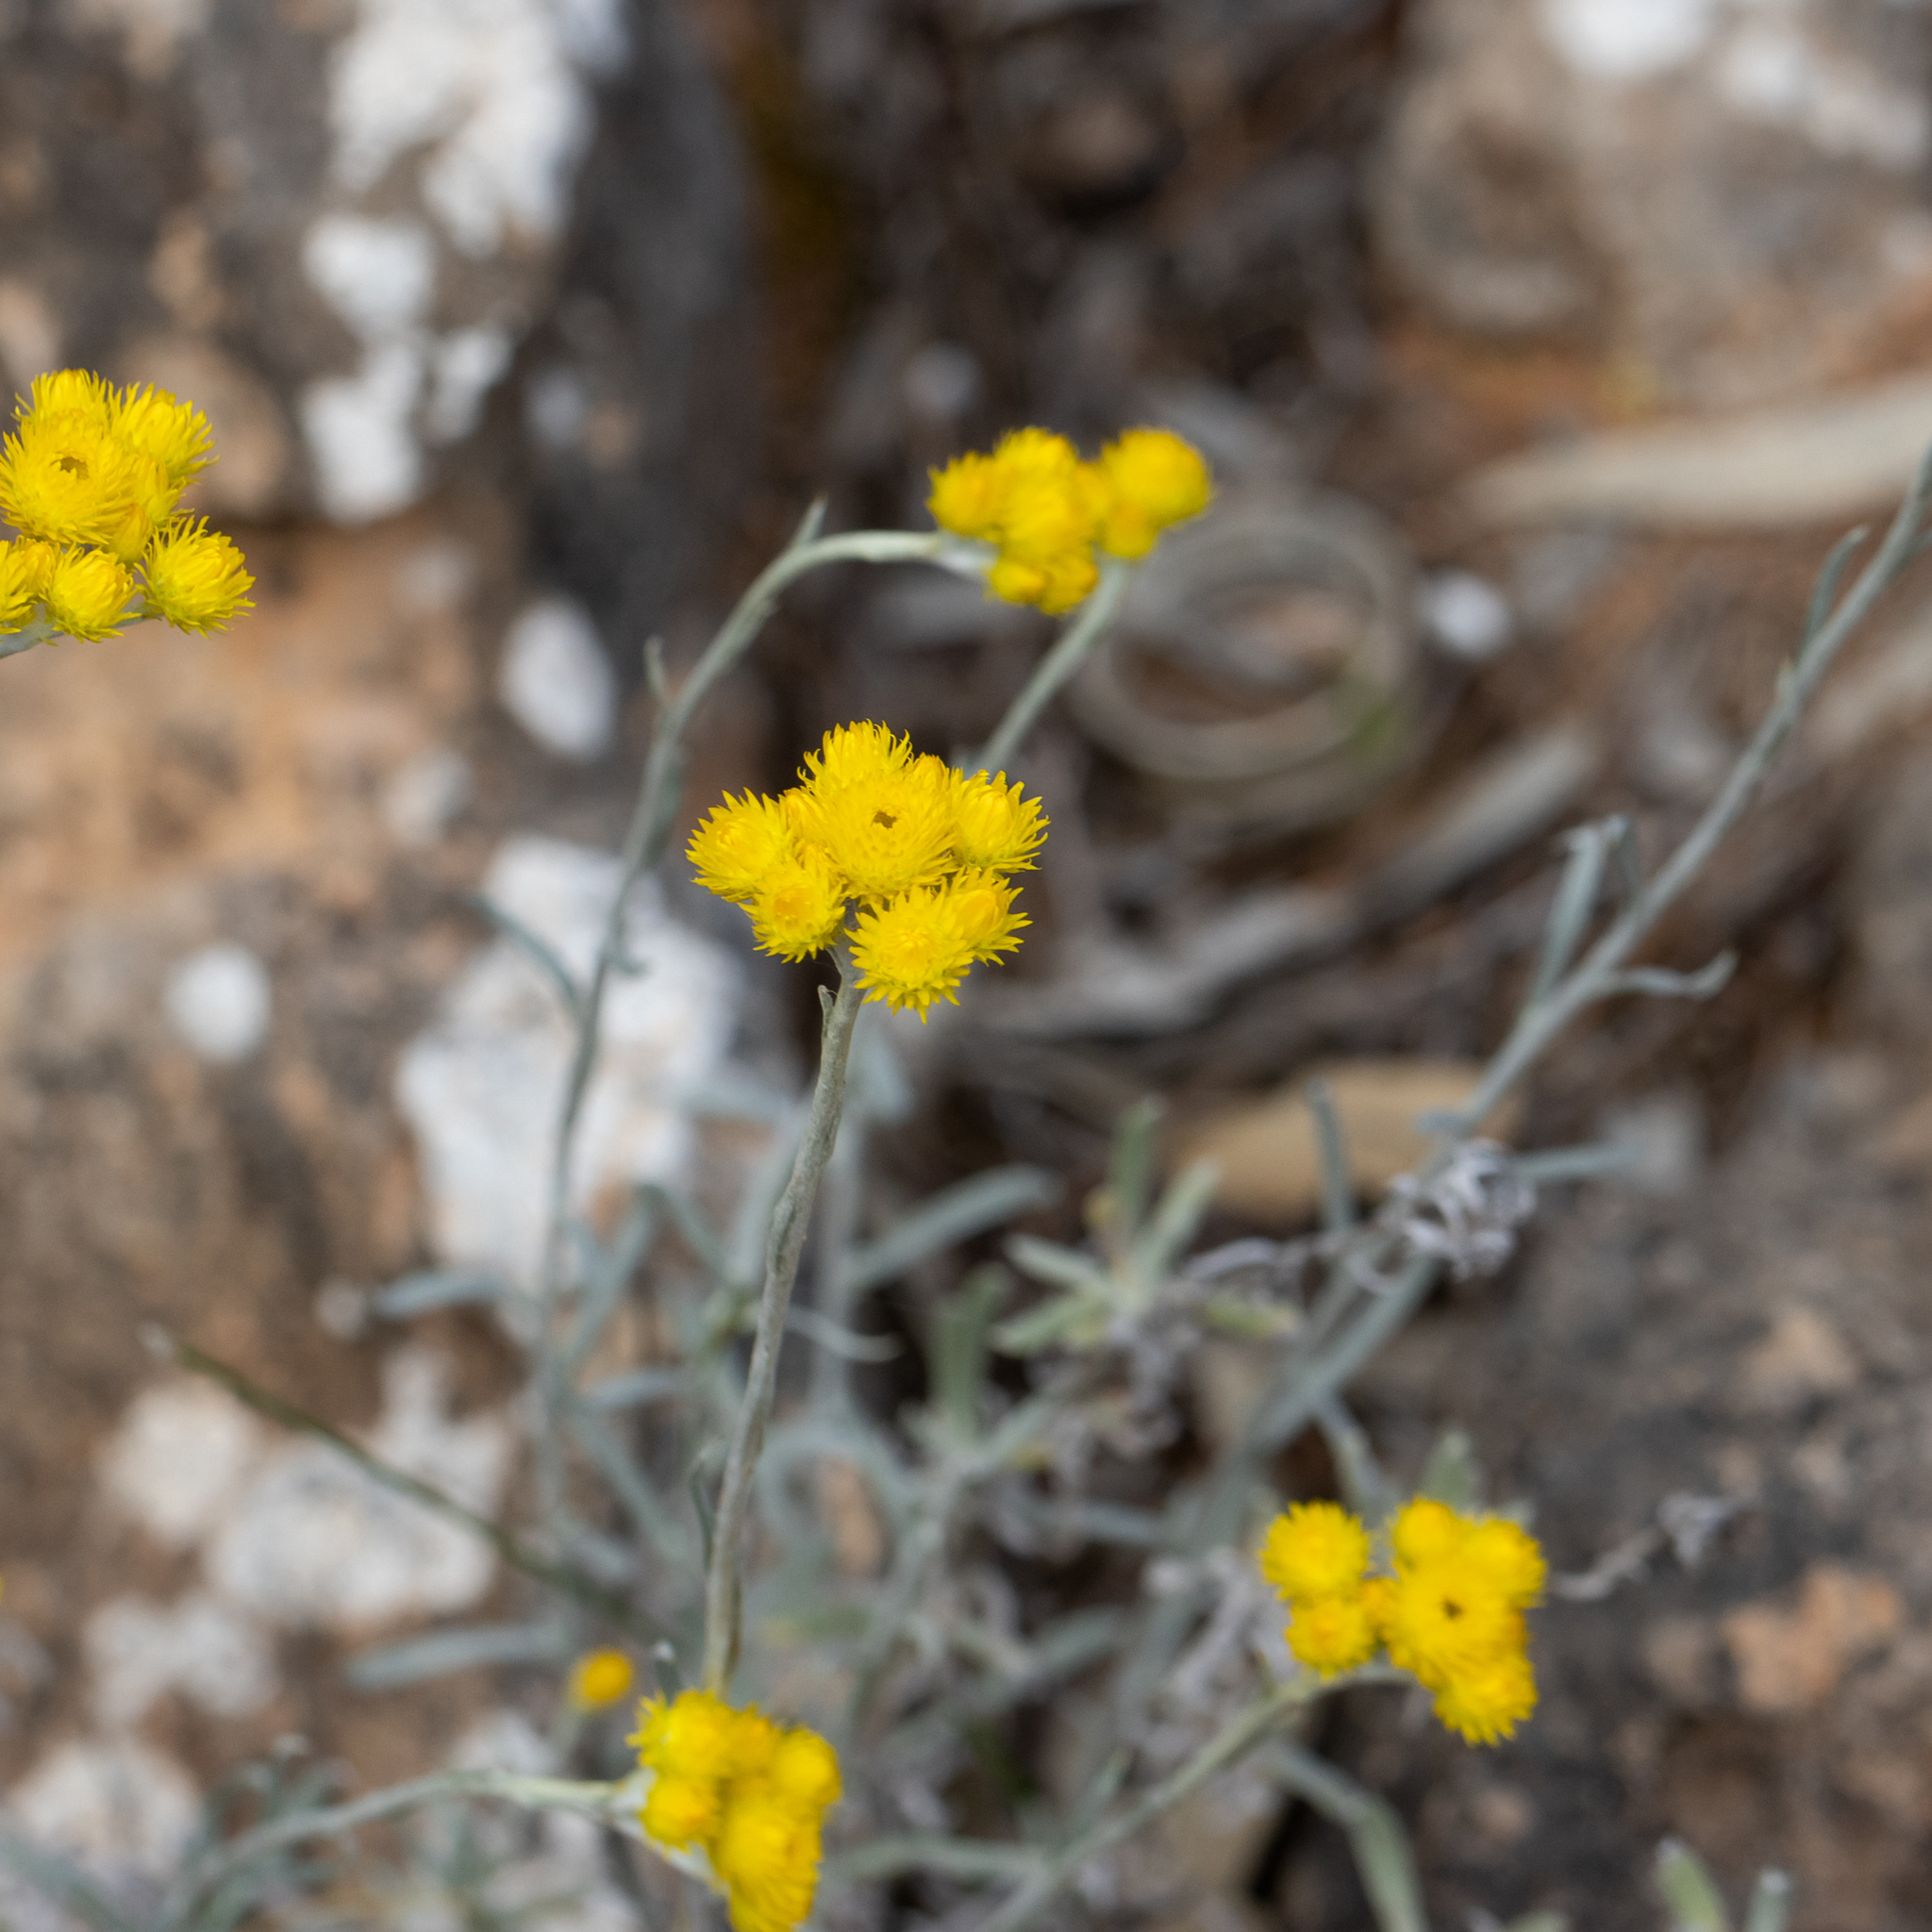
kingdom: Plantae
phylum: Tracheophyta
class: Magnoliopsida
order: Asterales
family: Asteraceae
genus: Chrysocephalum
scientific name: Chrysocephalum apiculatum
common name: Common everlasting
